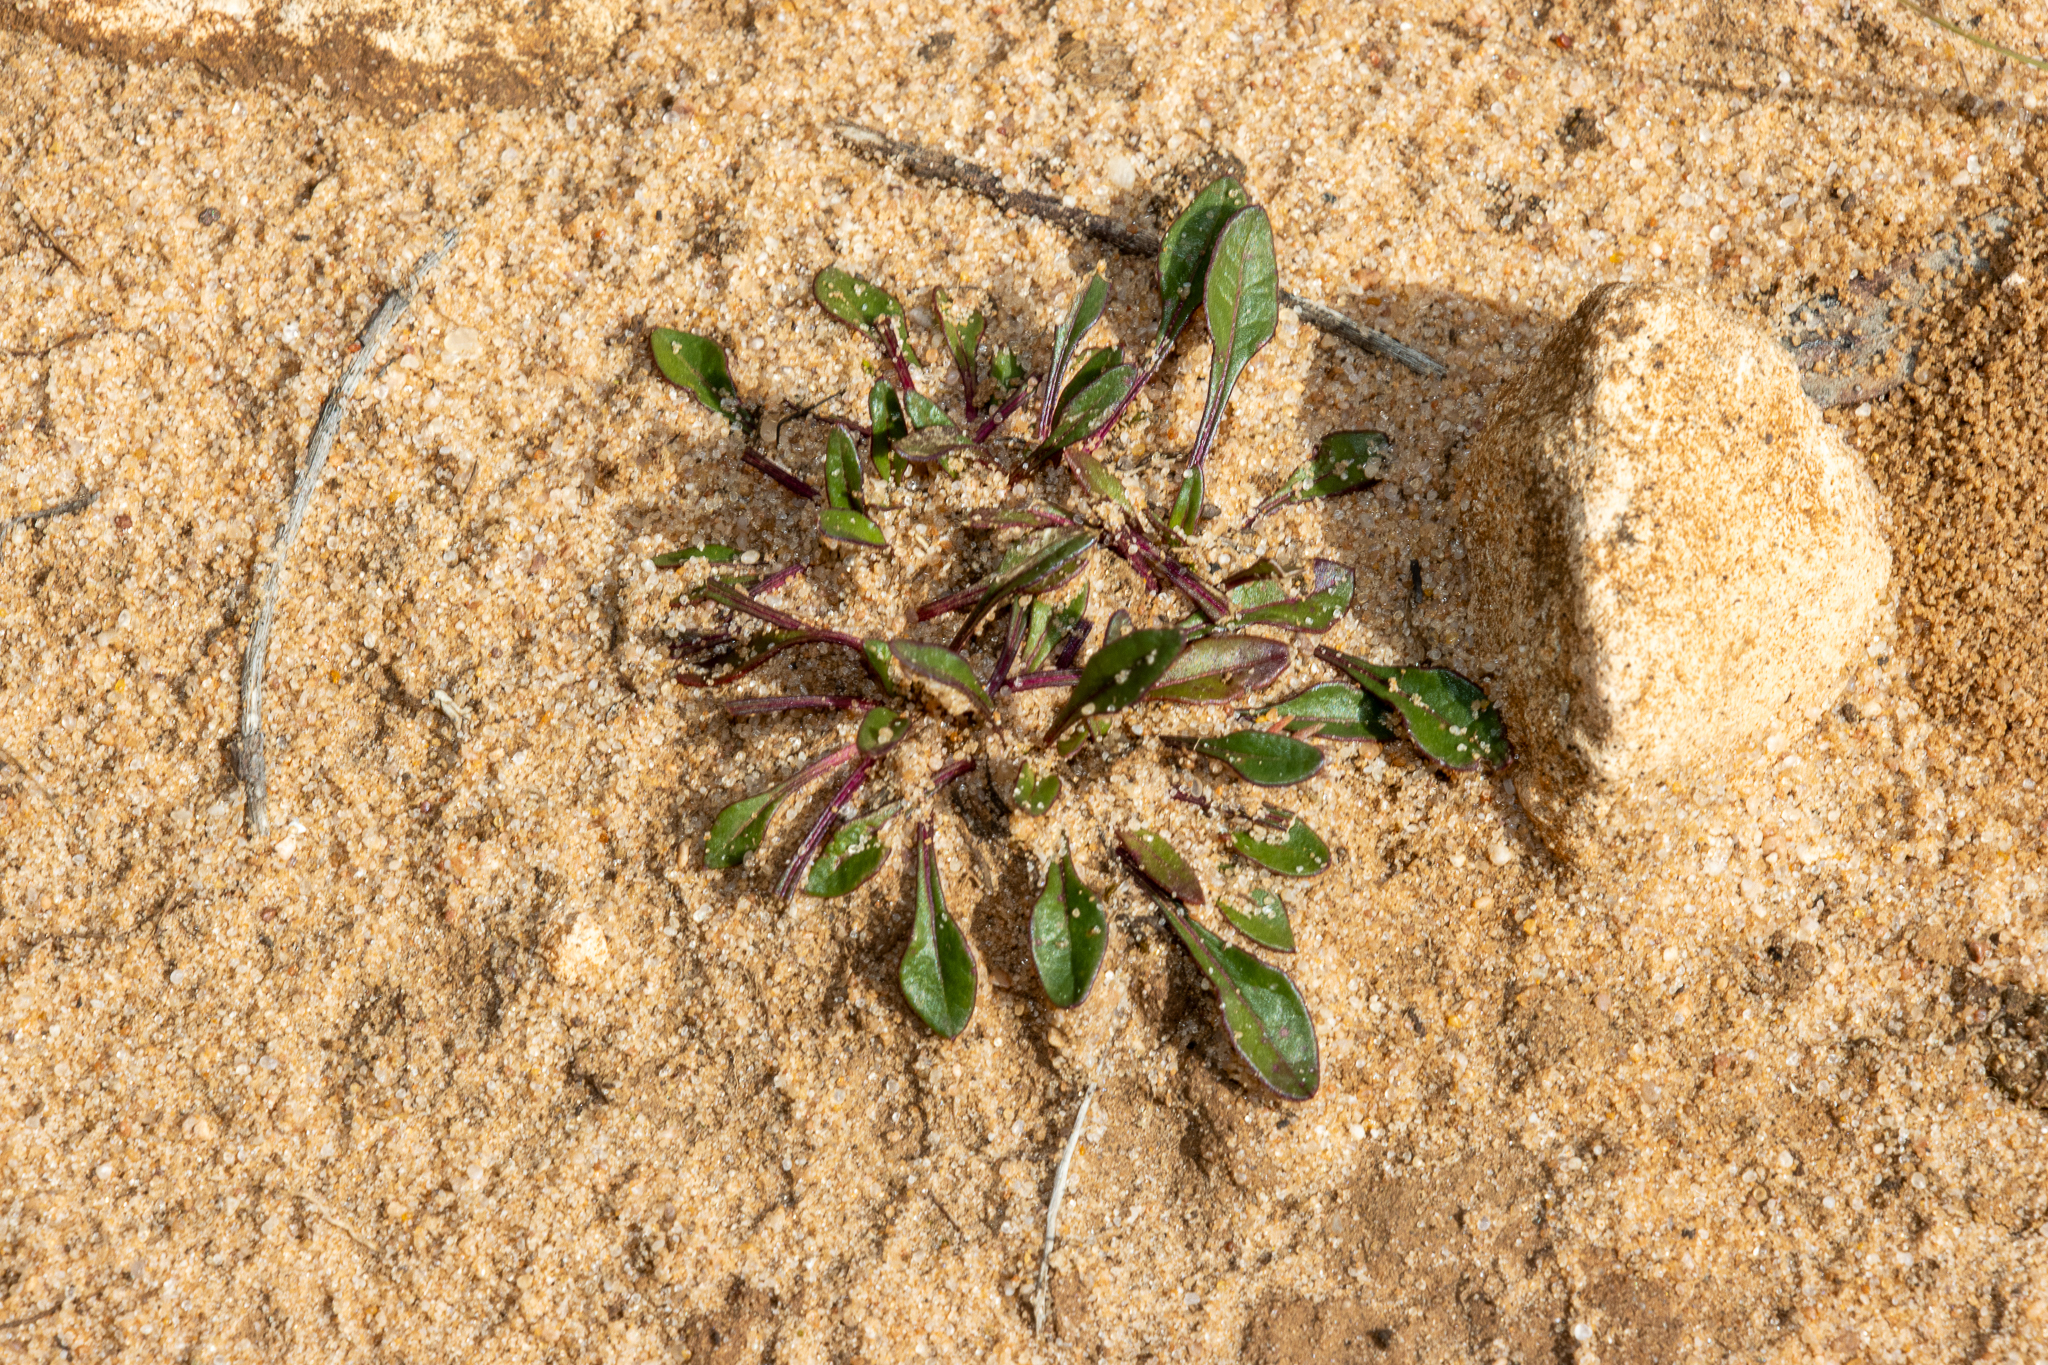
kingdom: Plantae
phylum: Tracheophyta
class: Magnoliopsida
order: Caryophyllales
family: Amaranthaceae
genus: Ptilotus
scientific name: Ptilotus spathulatus
